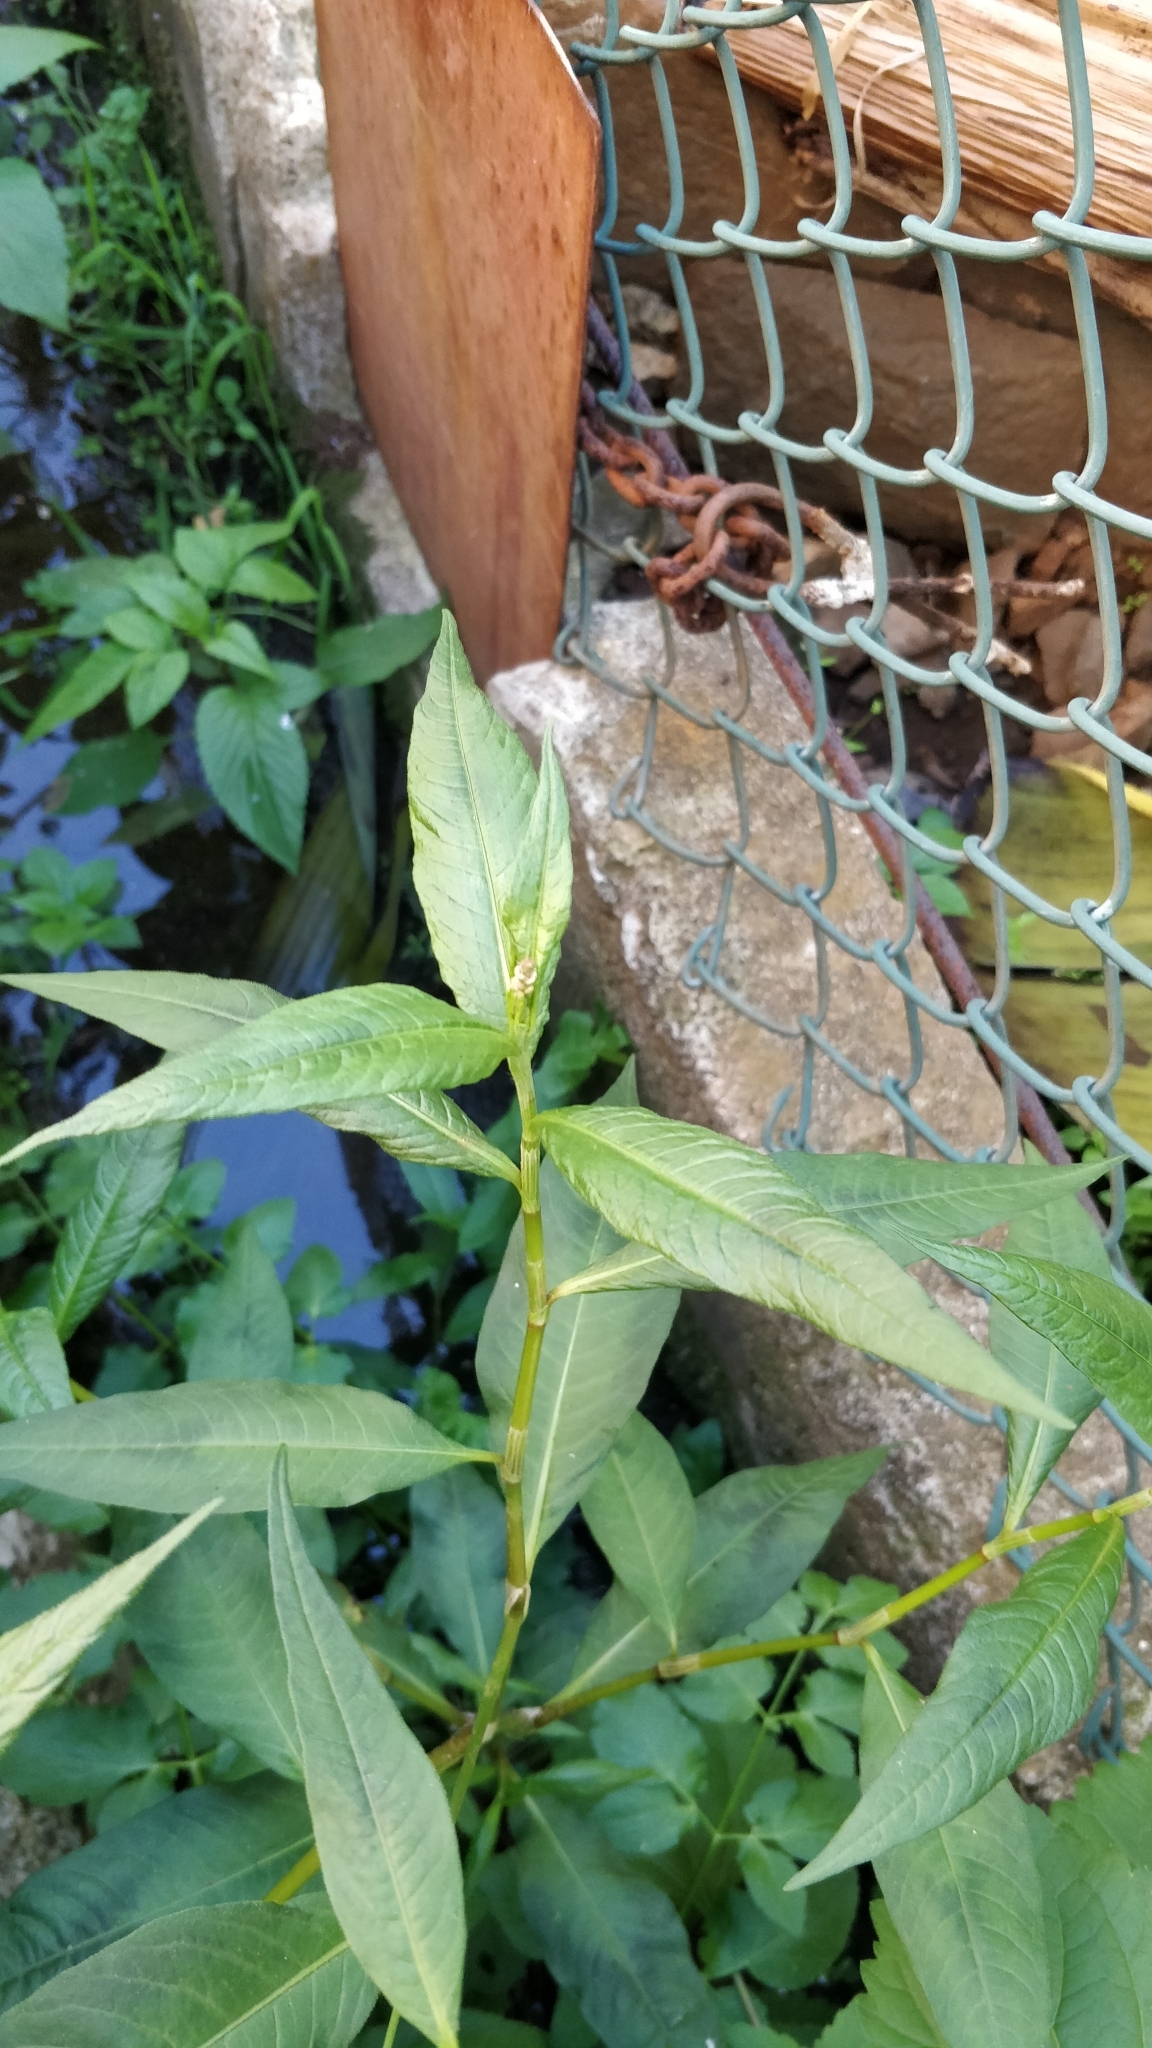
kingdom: Plantae
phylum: Tracheophyta
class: Magnoliopsida
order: Caryophyllales
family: Polygonaceae
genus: Persicaria
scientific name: Persicaria maculosa
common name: Redshank
